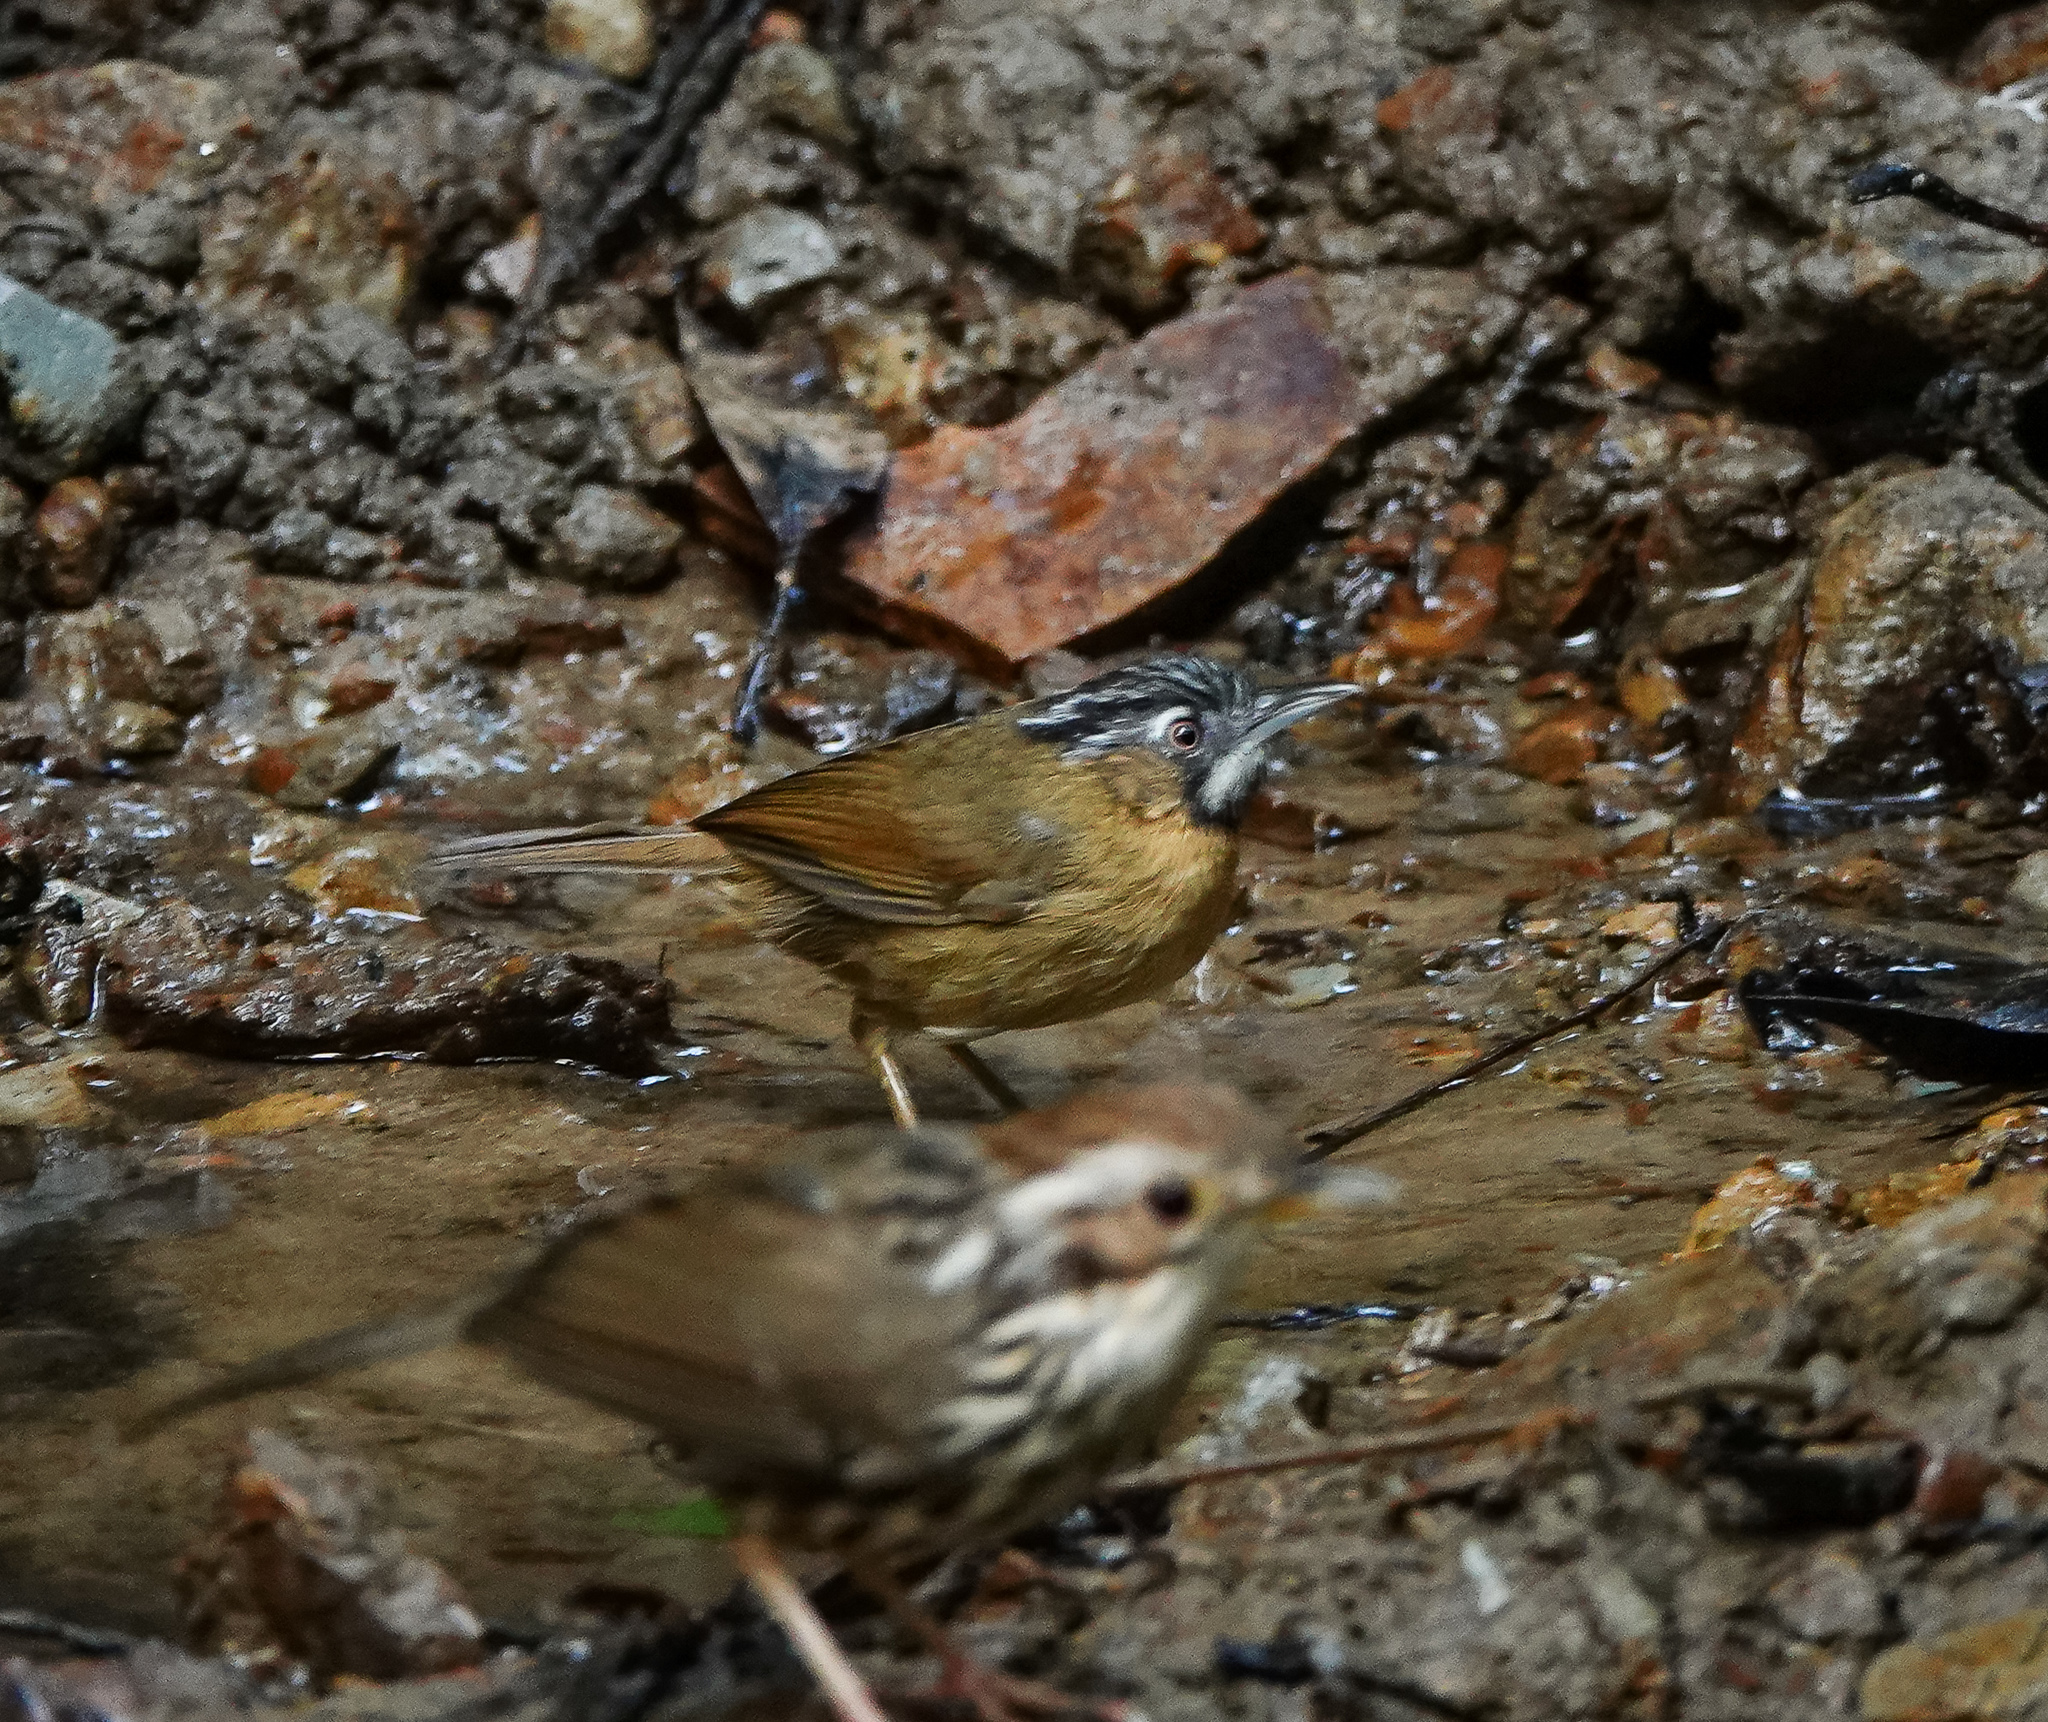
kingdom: Animalia
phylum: Chordata
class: Aves
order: Passeriformes
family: Timaliidae
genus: Stachyris
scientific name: Stachyris nigriceps
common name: Grey-throated babbler
